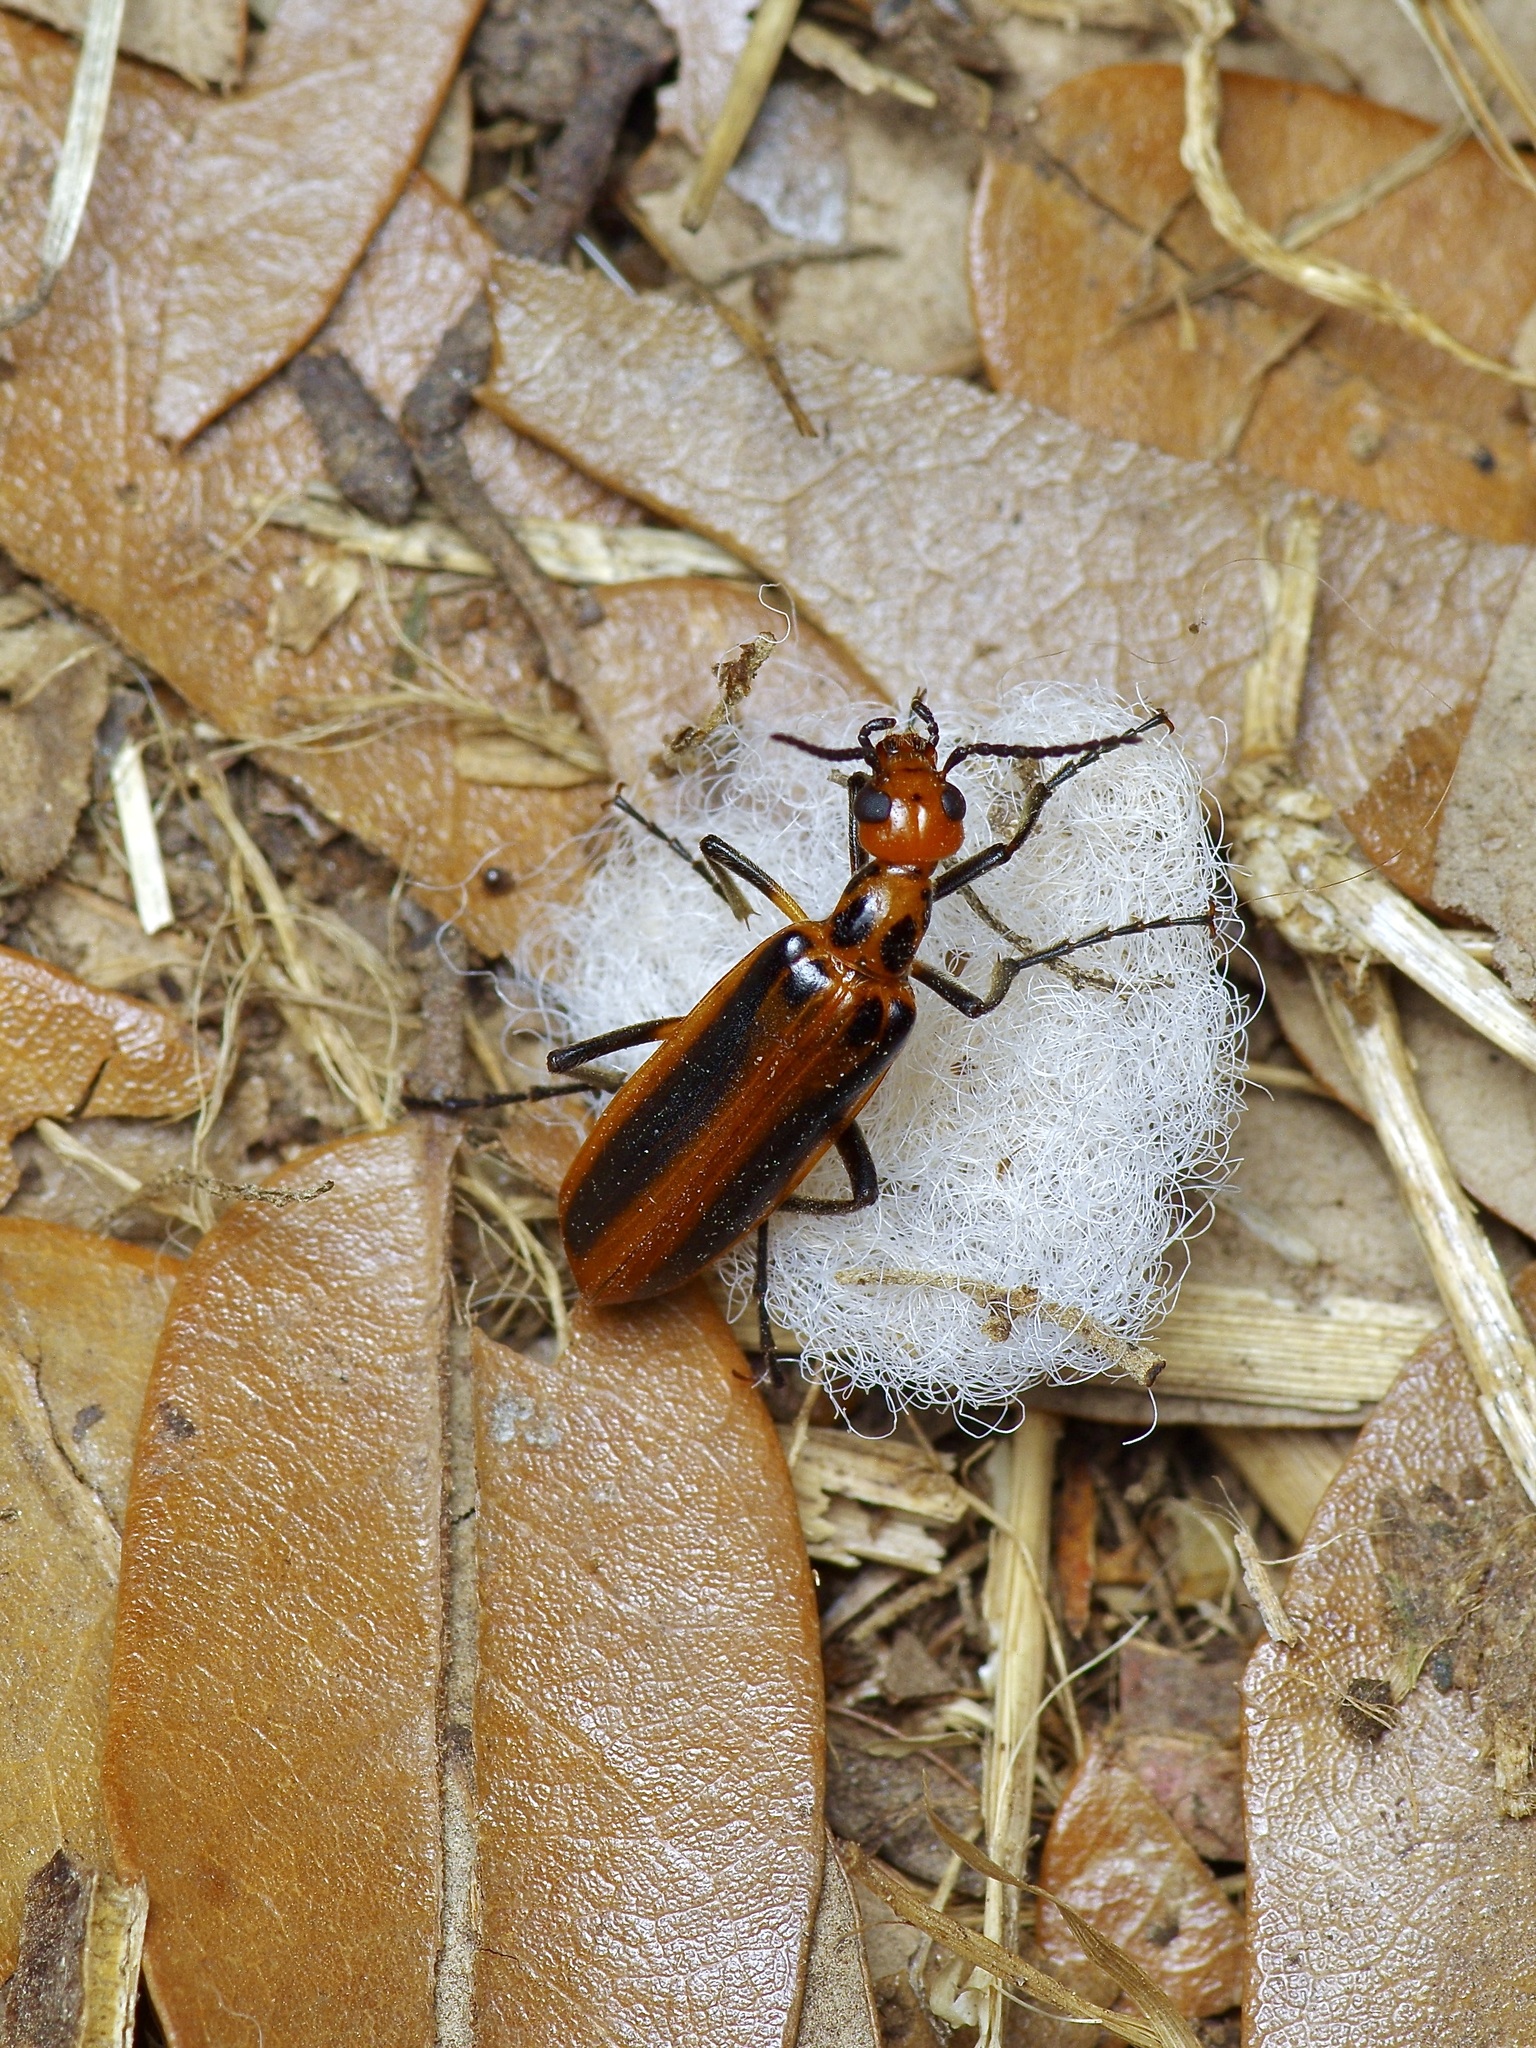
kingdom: Animalia
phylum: Arthropoda
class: Insecta
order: Coleoptera
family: Meloidae
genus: Pyrota
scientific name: Pyrota tenuicostatis
